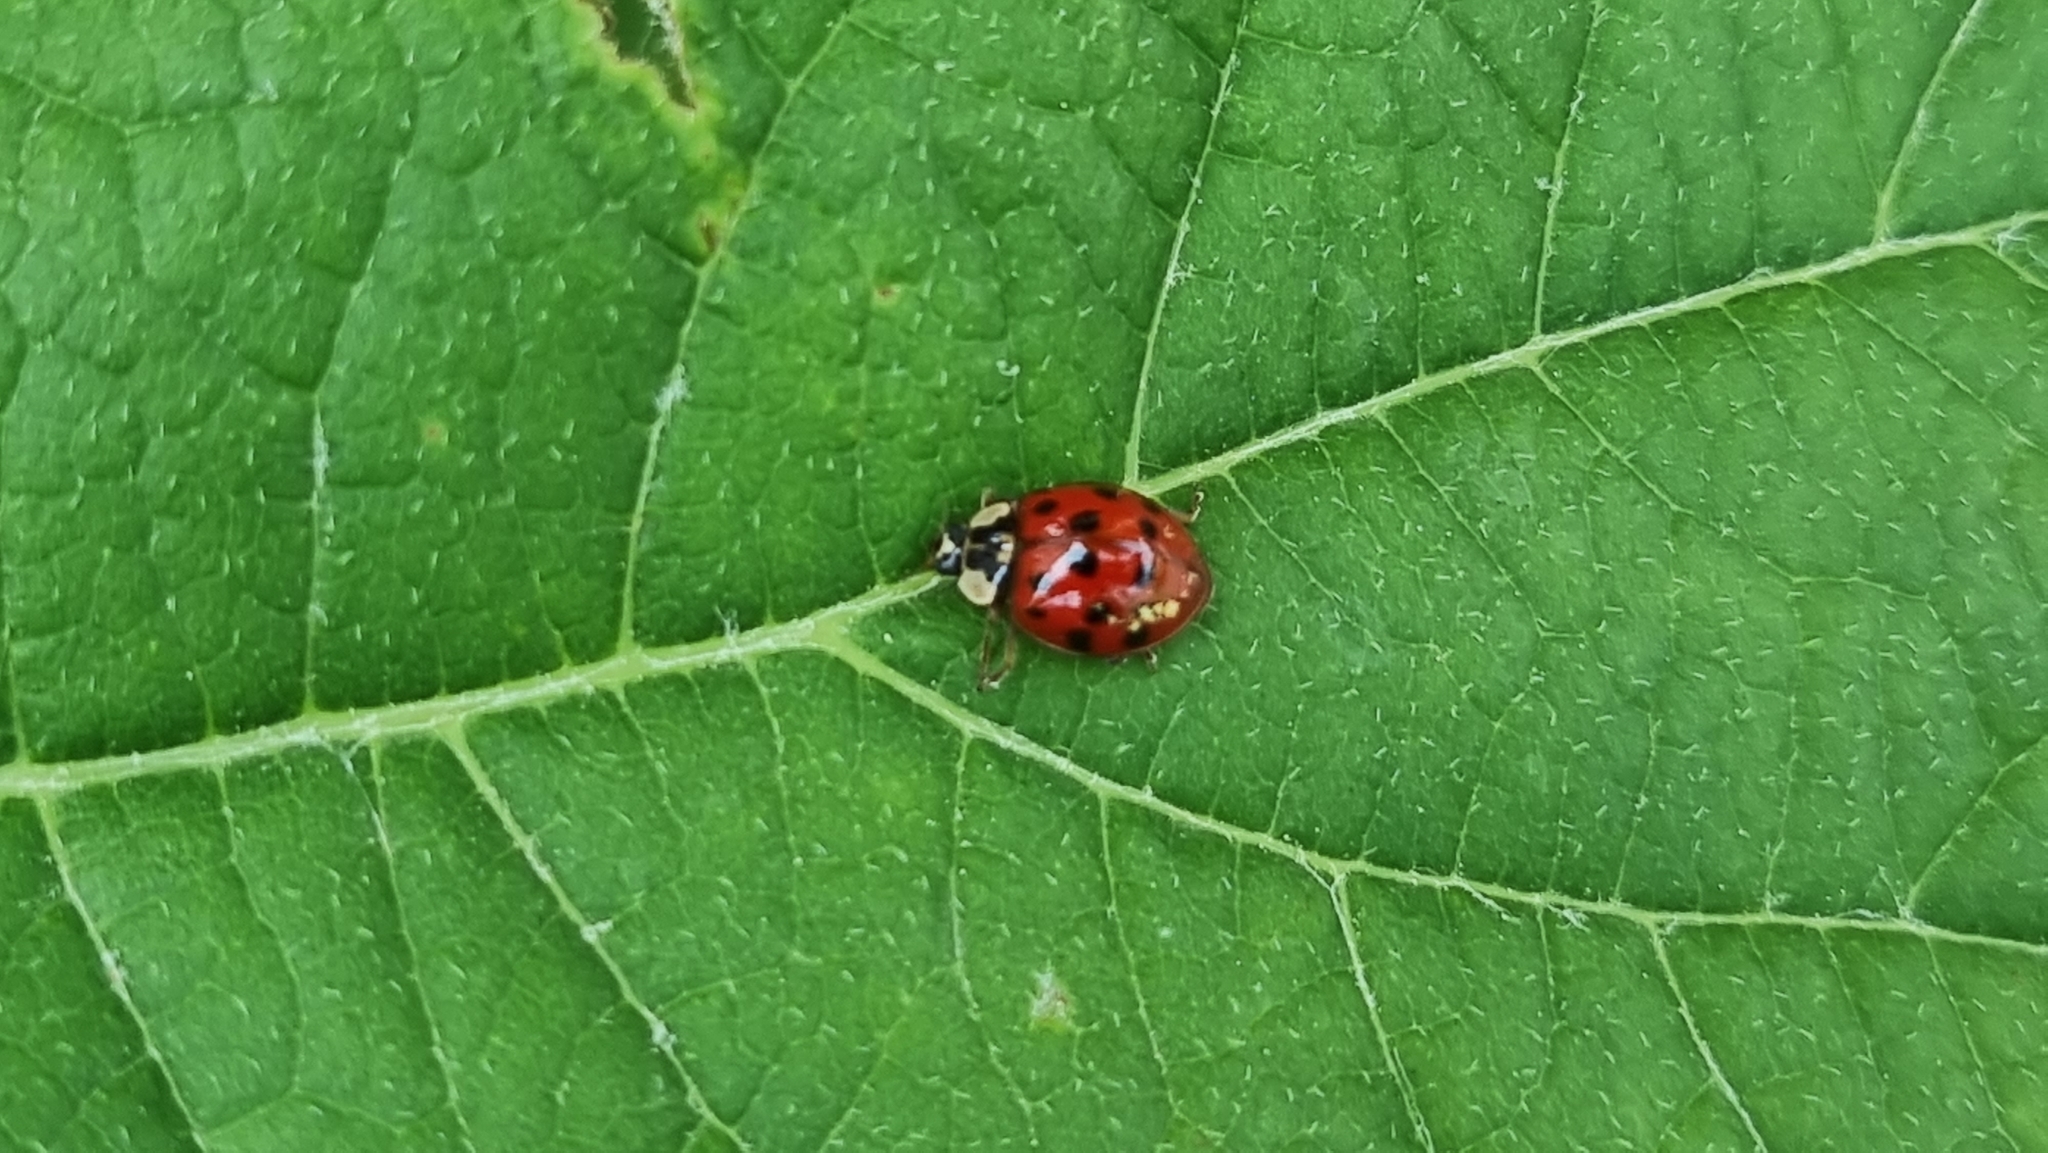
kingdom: Animalia
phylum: Arthropoda
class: Insecta
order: Coleoptera
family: Coccinellidae
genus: Harmonia
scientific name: Harmonia axyridis
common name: Harlequin ladybird
